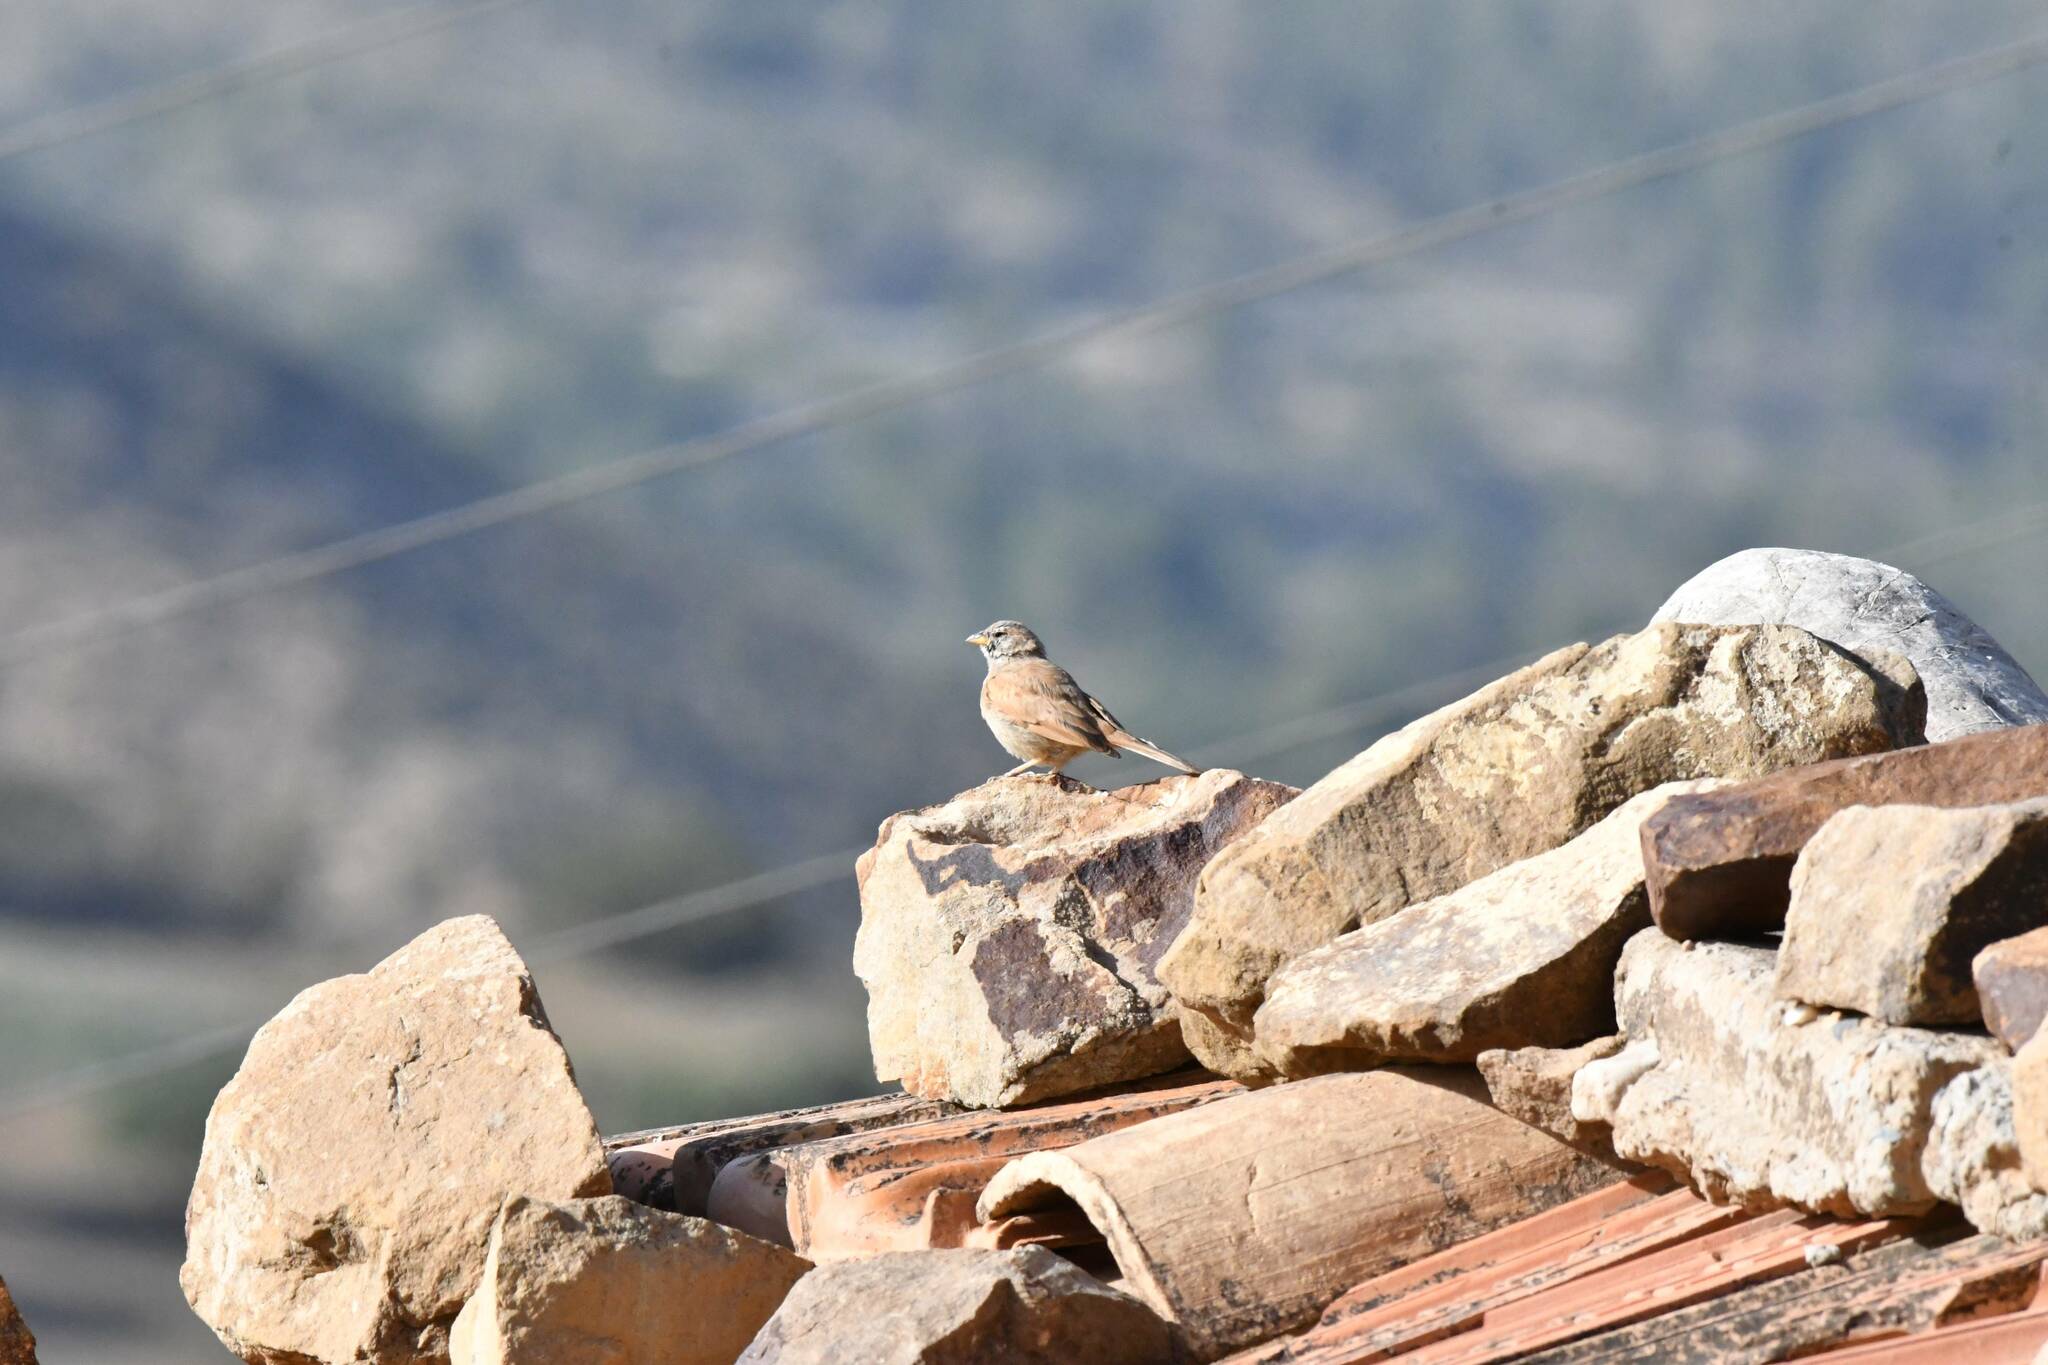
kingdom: Animalia
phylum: Chordata
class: Aves
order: Passeriformes
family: Emberizidae
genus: Emberiza
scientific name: Emberiza sahari
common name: House bunting
